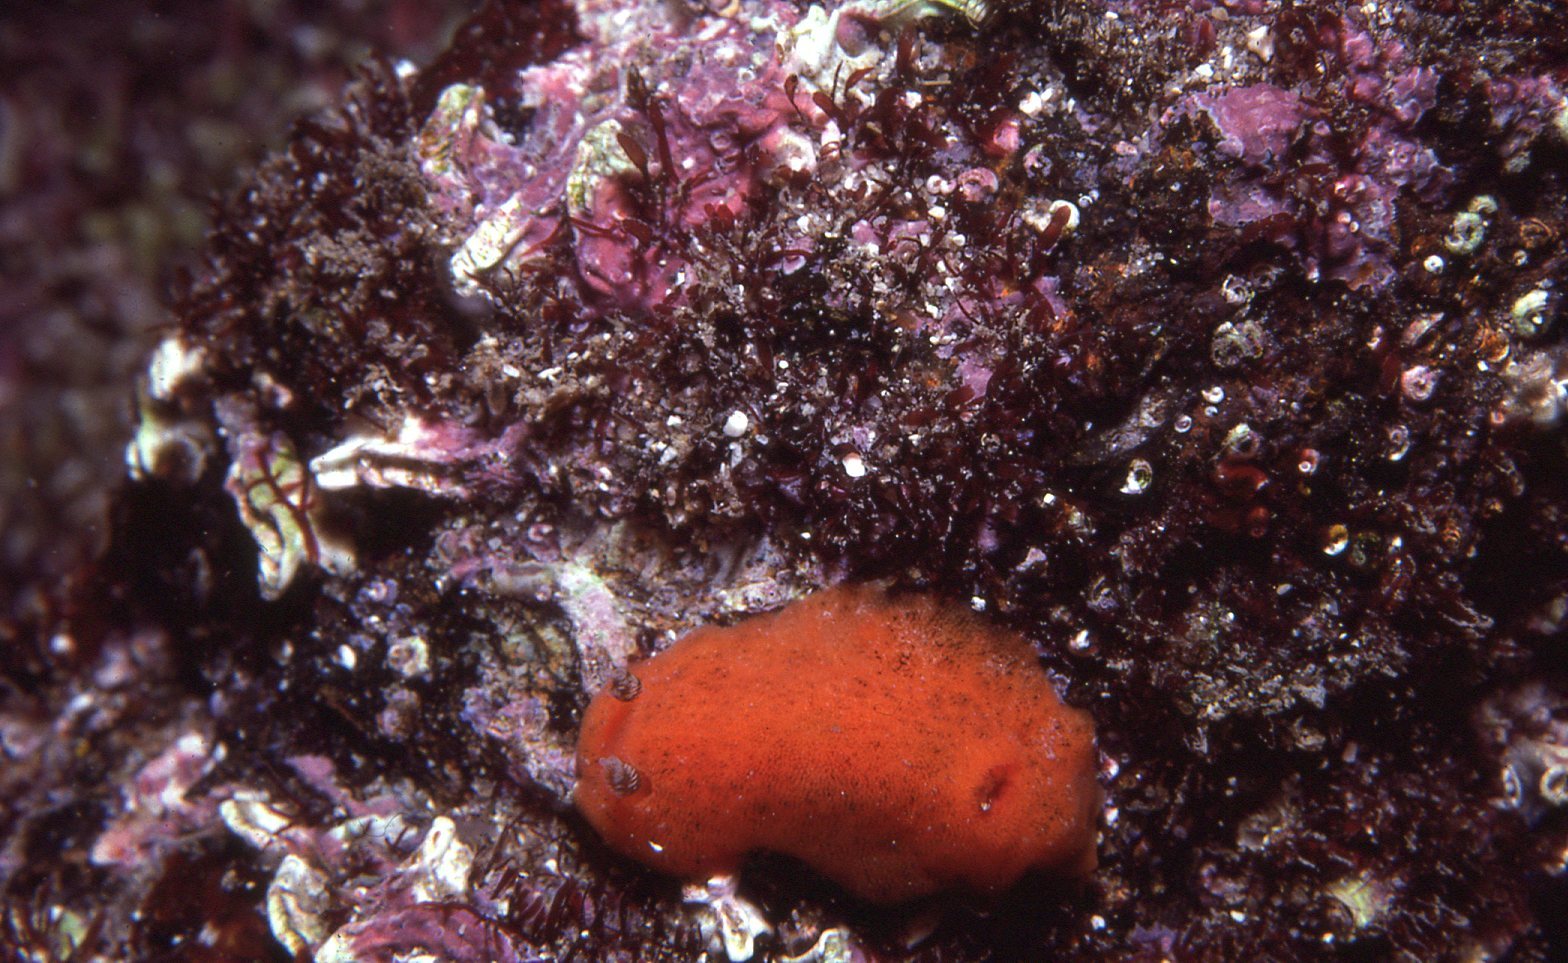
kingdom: Animalia
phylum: Mollusca
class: Gastropoda
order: Nudibranchia
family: Discodorididae
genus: Rostanga
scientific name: Rostanga arbutus
